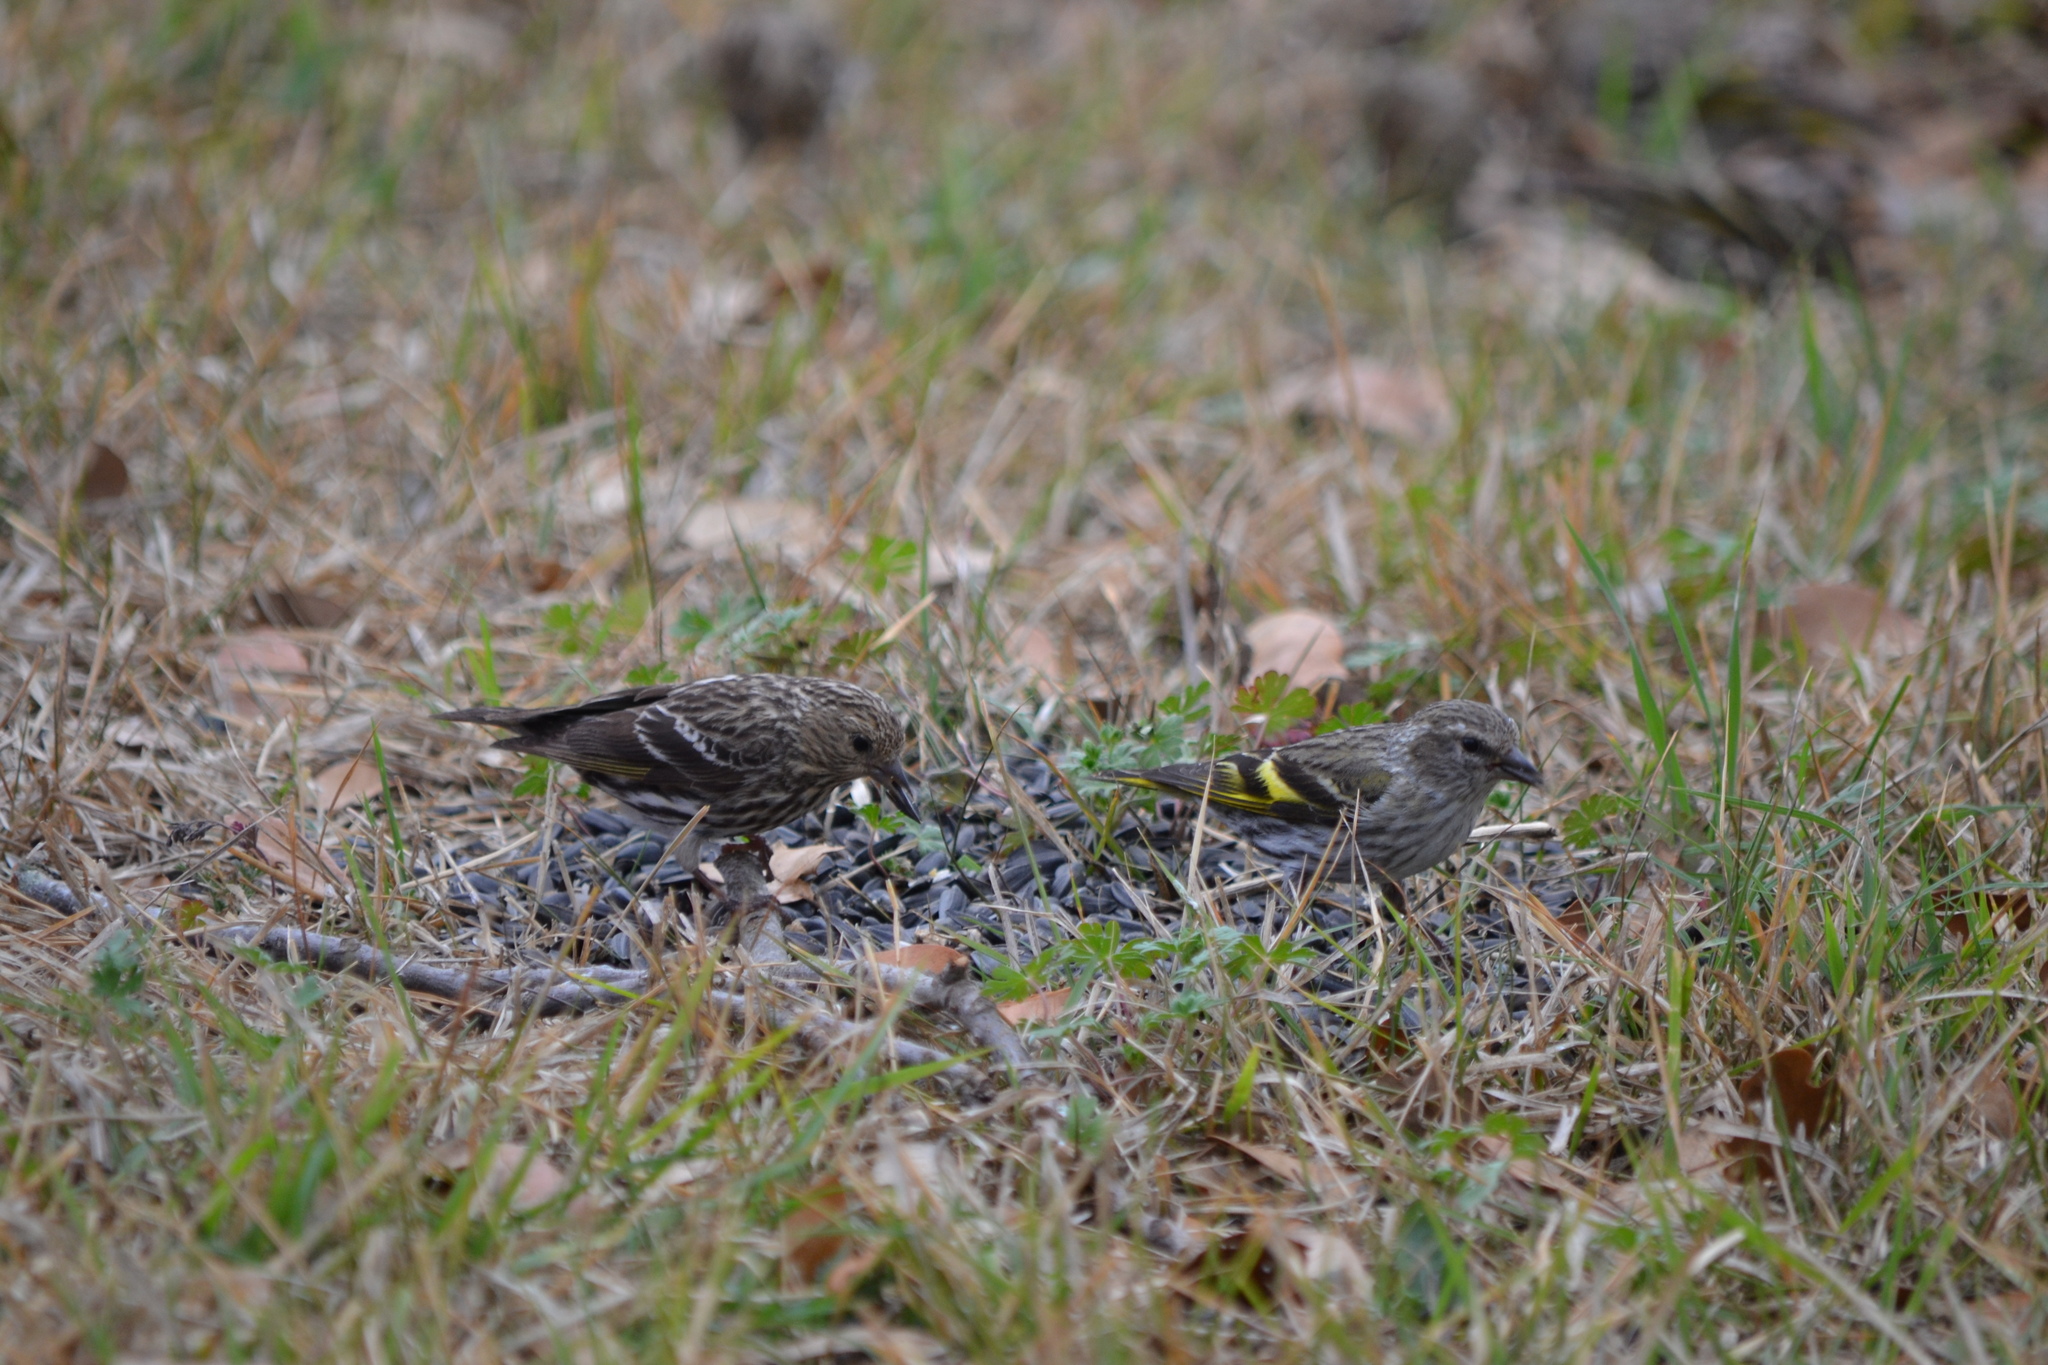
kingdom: Animalia
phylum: Chordata
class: Aves
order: Passeriformes
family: Fringillidae
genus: Spinus
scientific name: Spinus pinus
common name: Pine siskin
